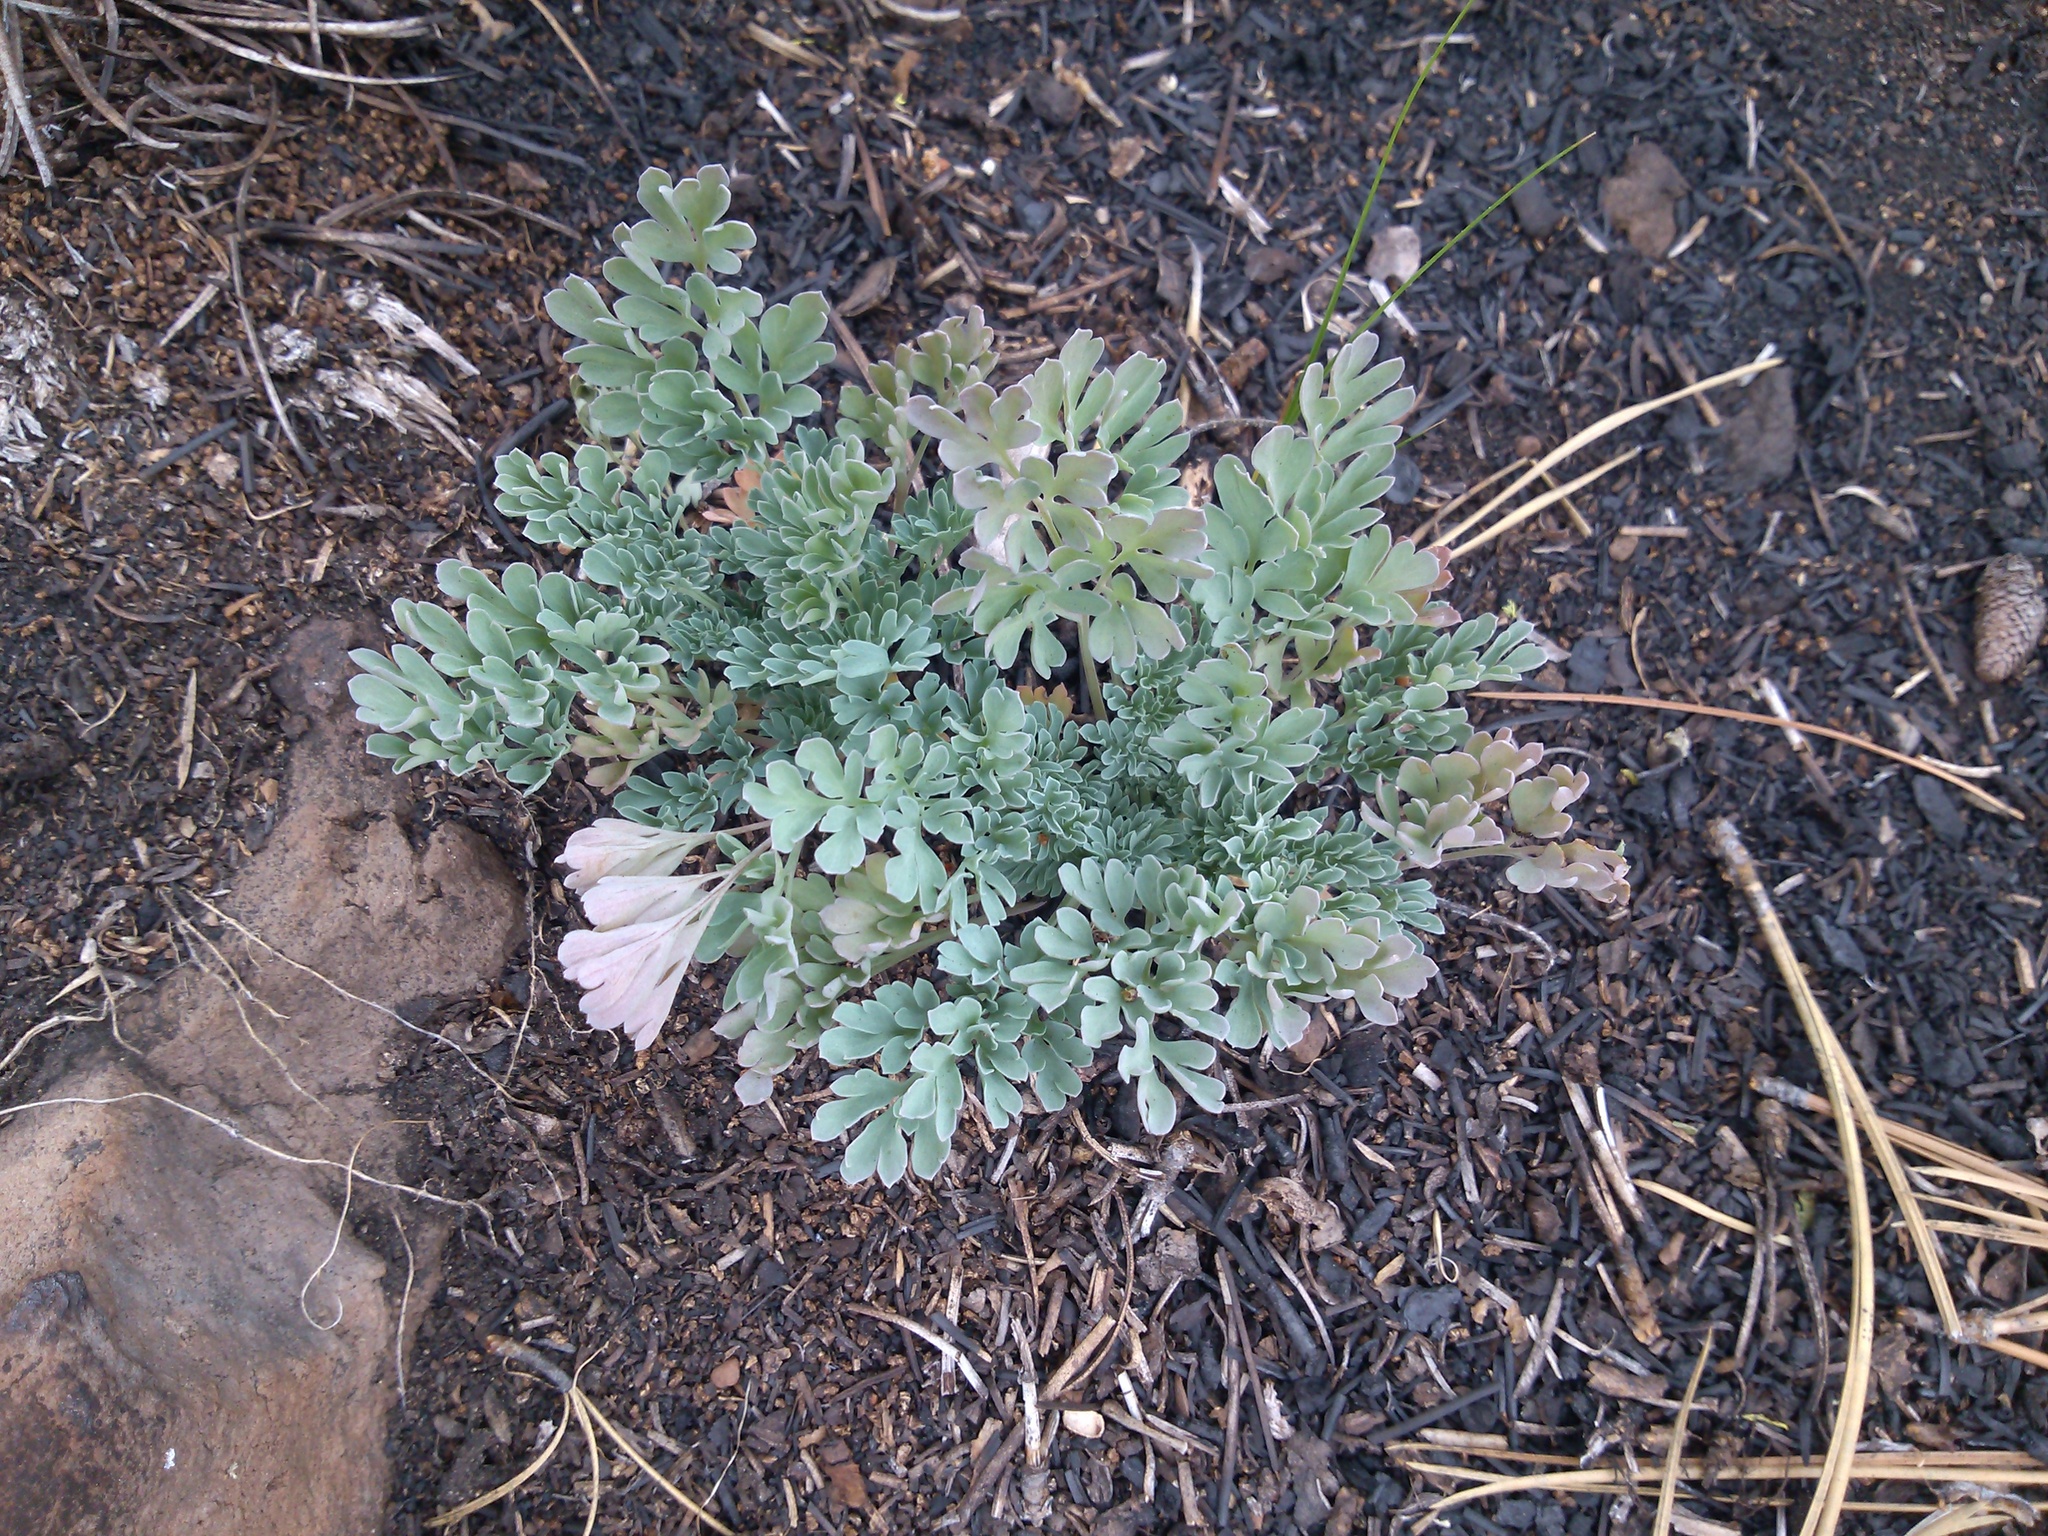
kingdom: Plantae
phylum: Tracheophyta
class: Magnoliopsida
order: Saxifragales
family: Paeoniaceae
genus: Paeonia
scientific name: Paeonia brownii
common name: Brown's peony
